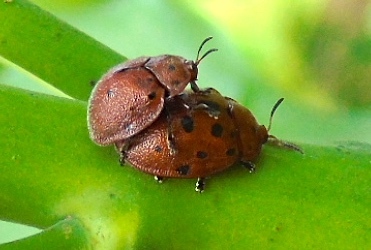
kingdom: Animalia
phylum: Arthropoda
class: Insecta
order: Coleoptera
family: Chrysomelidae
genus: Chelymorpha
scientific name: Chelymorpha
